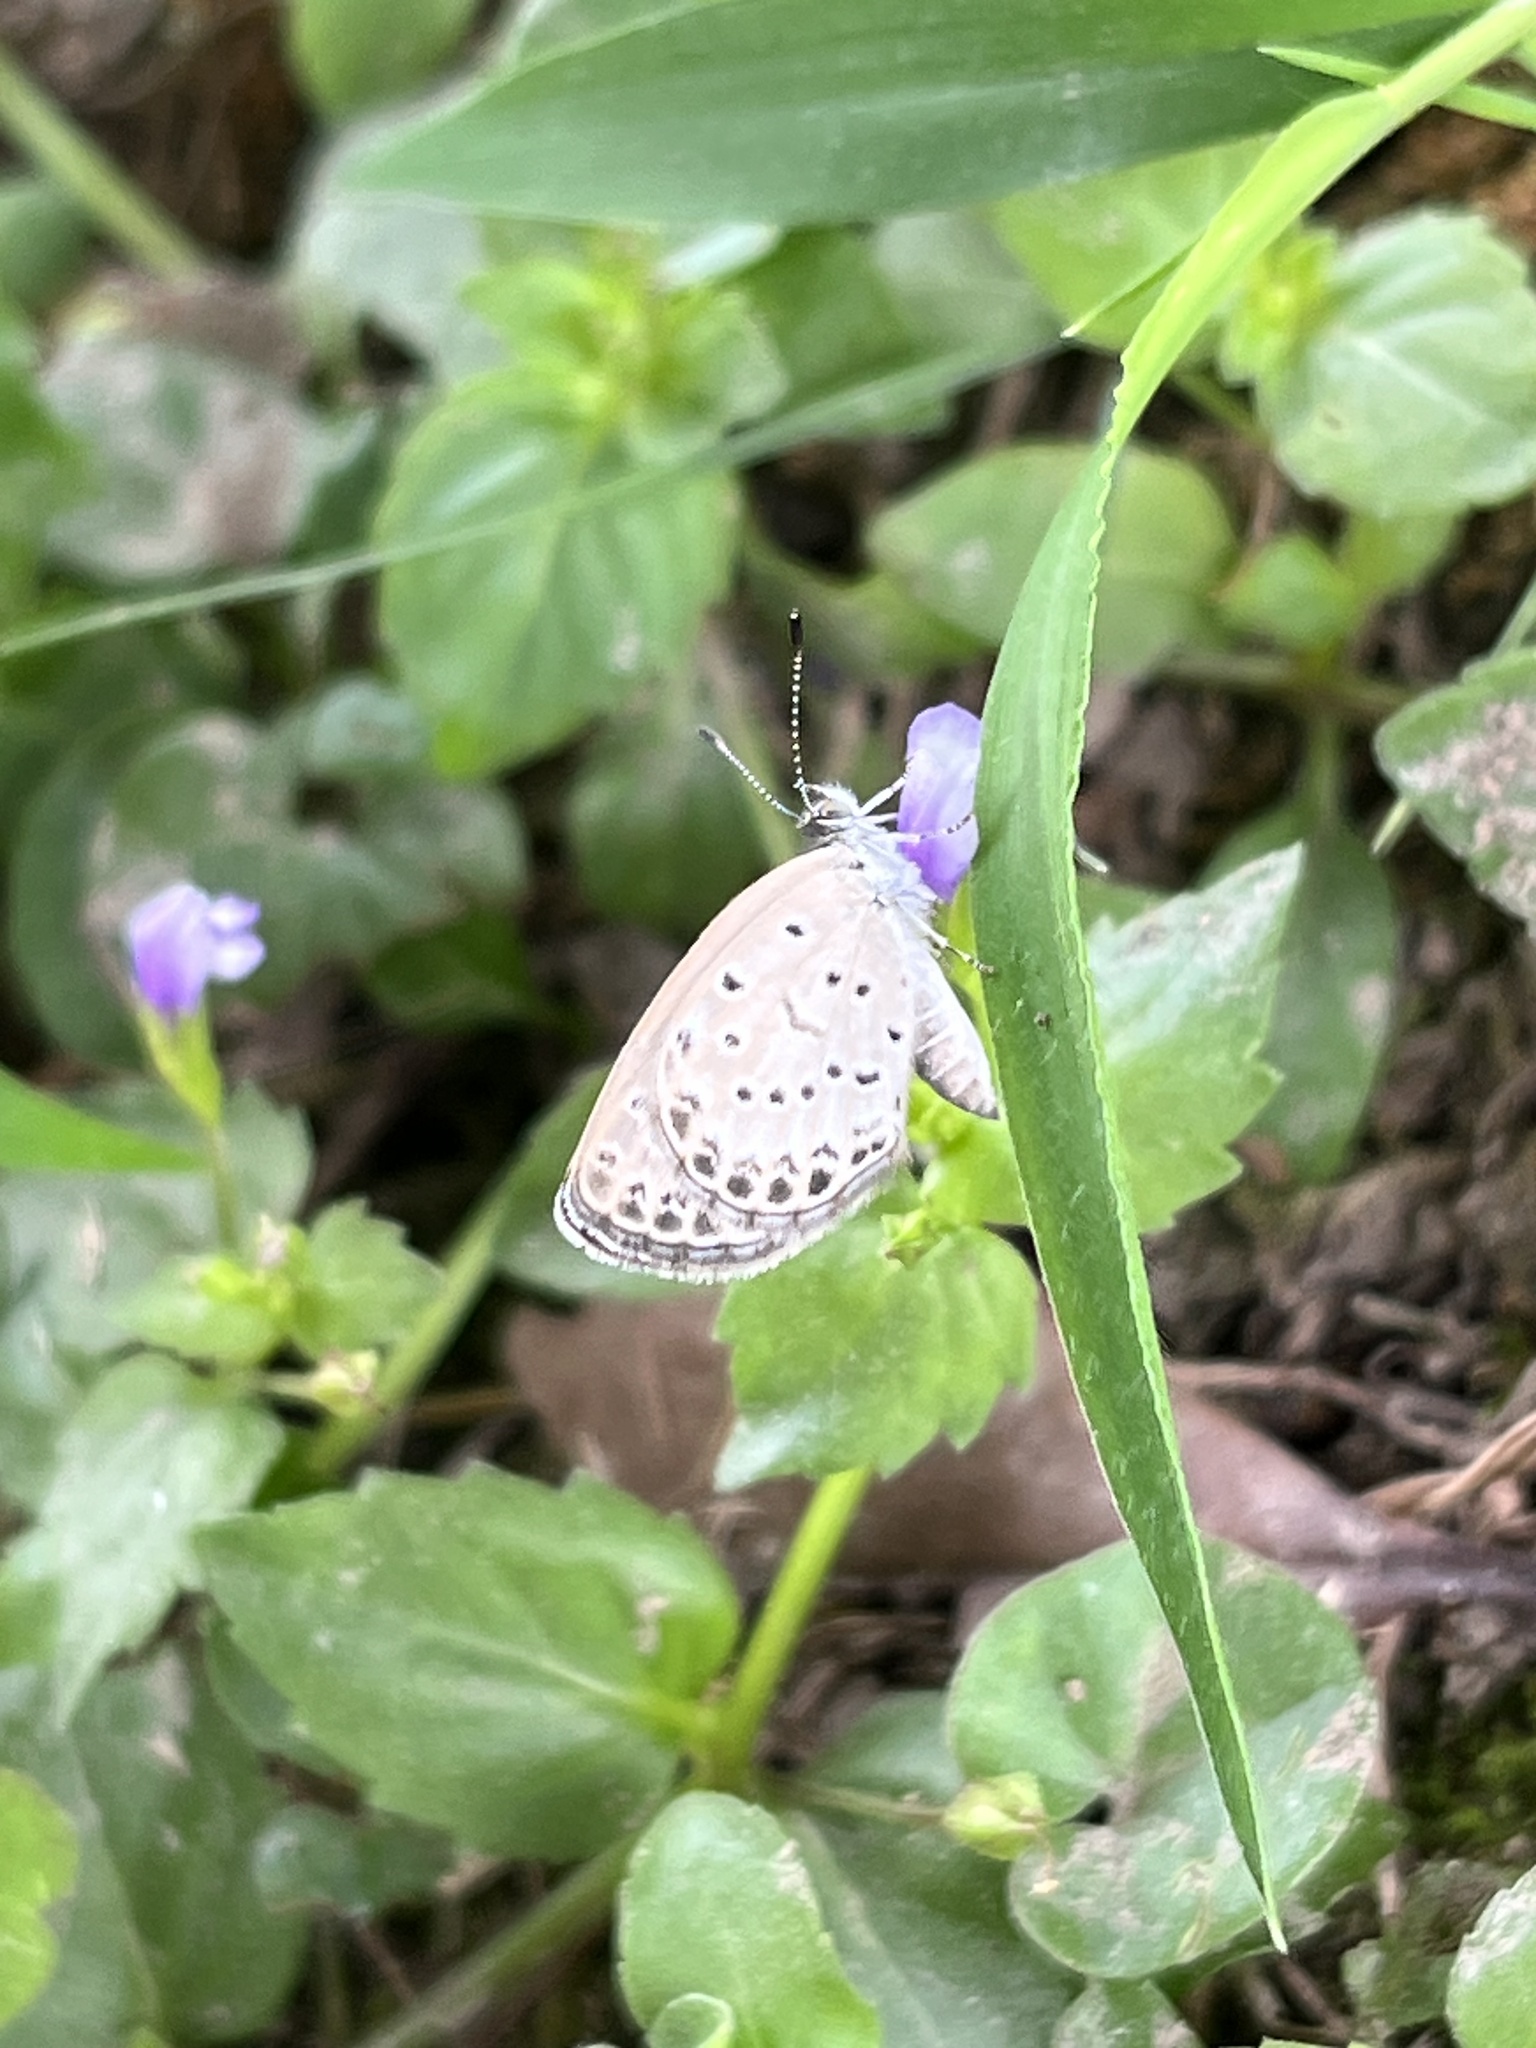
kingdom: Animalia
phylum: Arthropoda
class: Insecta
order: Lepidoptera
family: Lycaenidae
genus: Pseudozizeeria
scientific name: Pseudozizeeria maha
